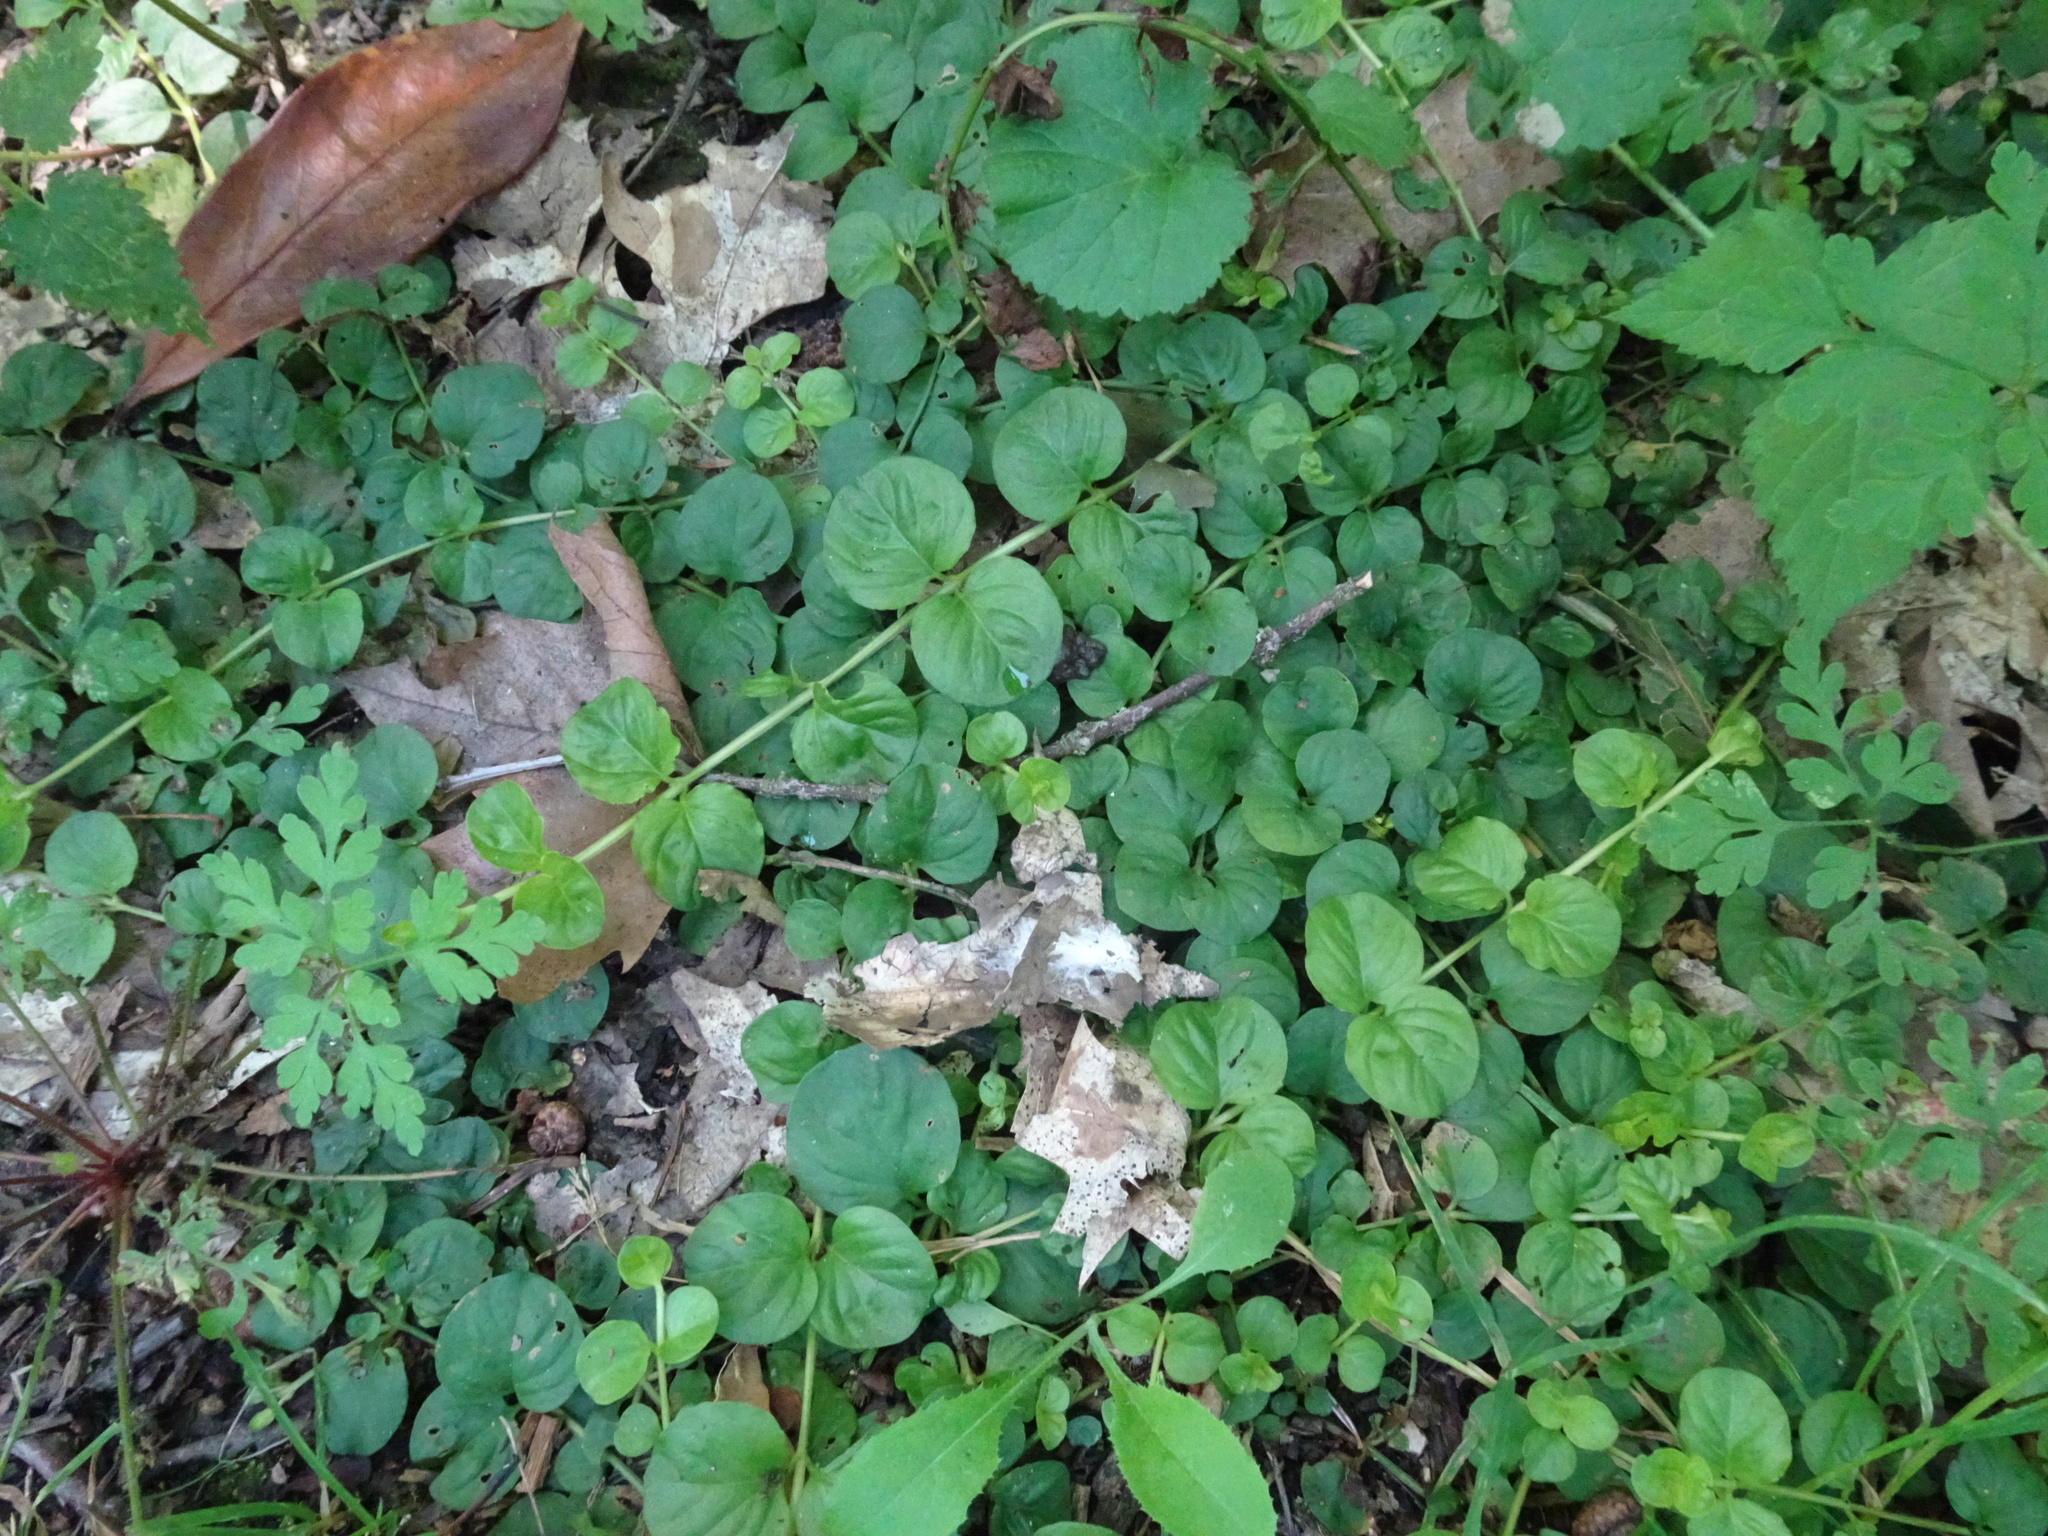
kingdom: Plantae
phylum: Tracheophyta
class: Magnoliopsida
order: Ericales
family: Primulaceae
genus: Lysimachia
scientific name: Lysimachia nummularia
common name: Moneywort
